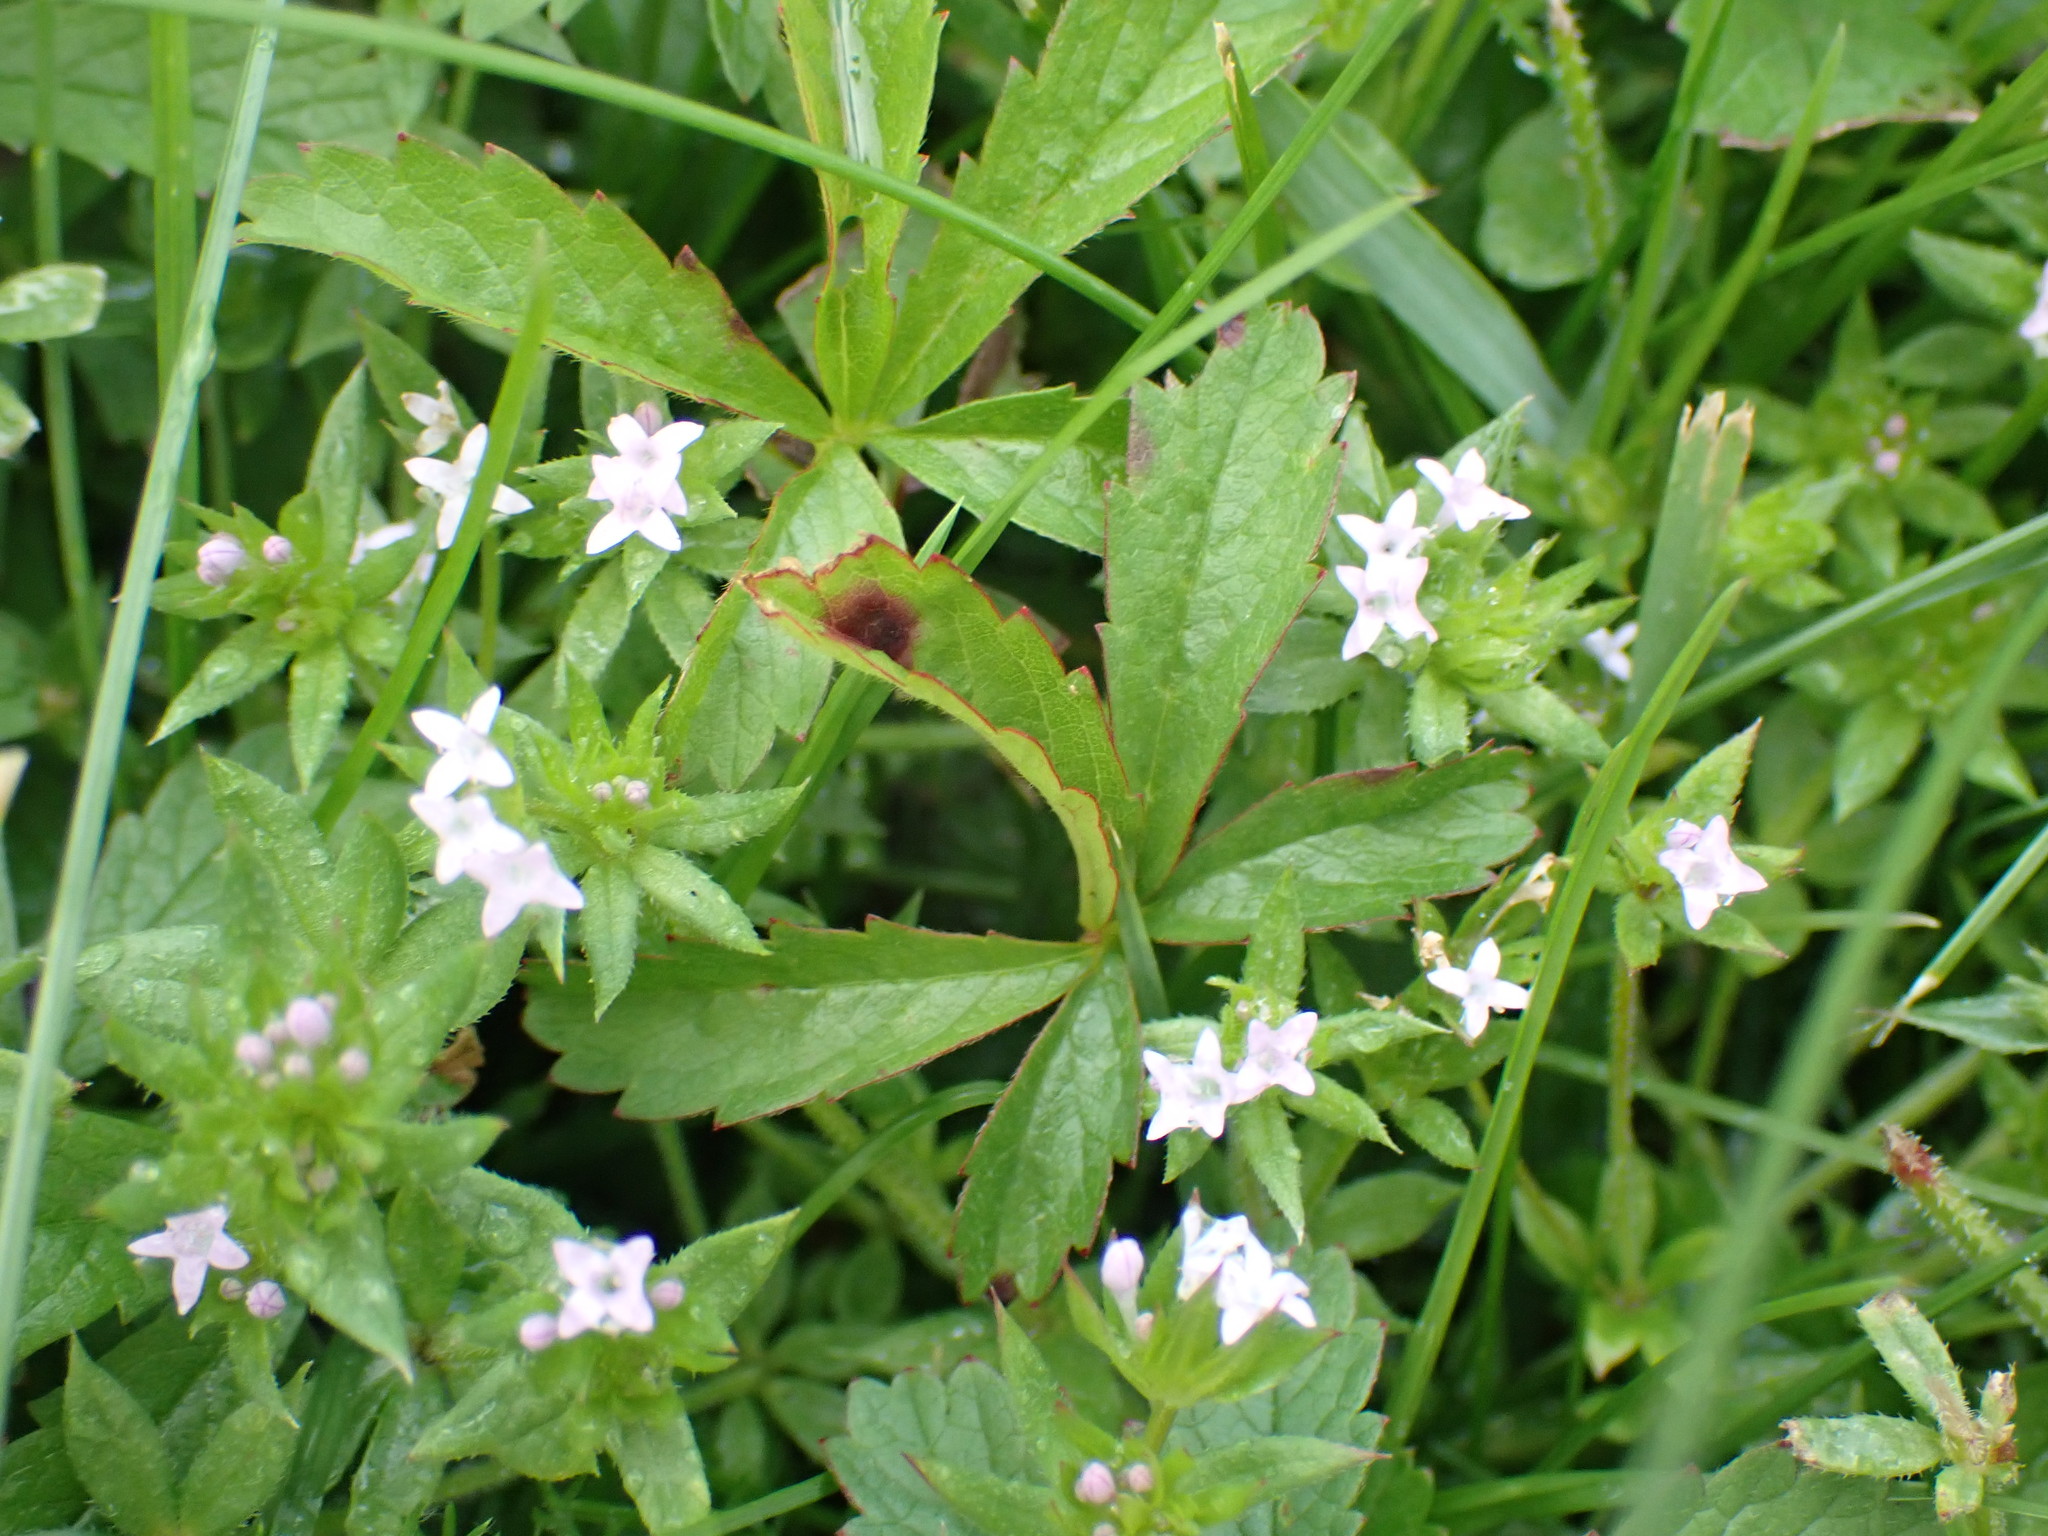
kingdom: Plantae
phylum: Tracheophyta
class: Magnoliopsida
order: Gentianales
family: Rubiaceae
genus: Sherardia
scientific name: Sherardia arvensis
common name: Field madder
